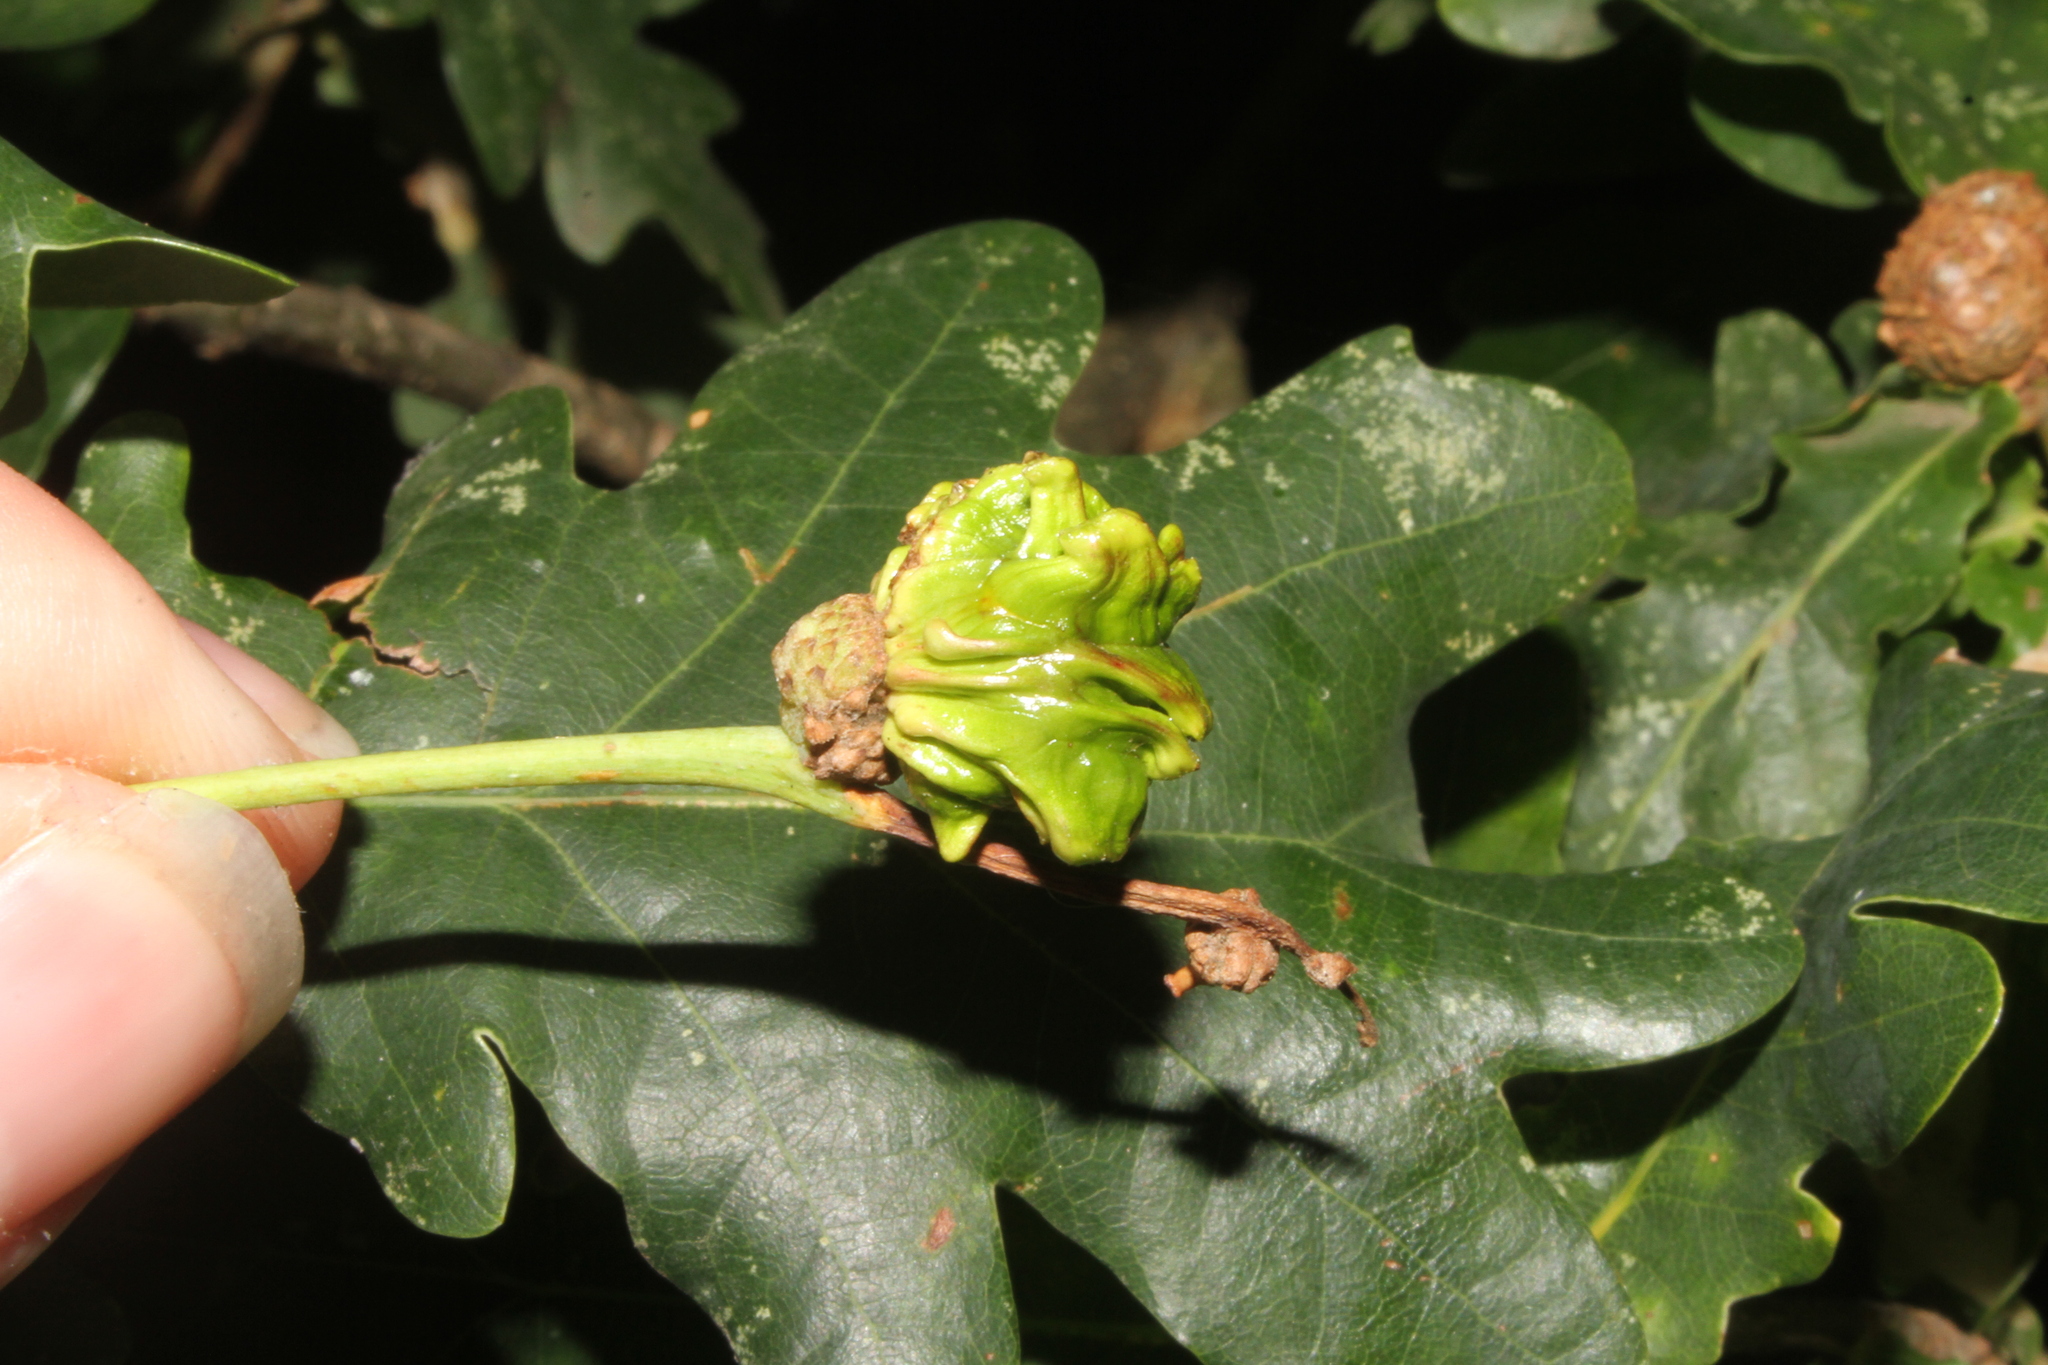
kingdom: Animalia
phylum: Arthropoda
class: Insecta
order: Hymenoptera
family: Cynipidae
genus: Andricus
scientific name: Andricus quercuscalicis
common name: Knopper gall
